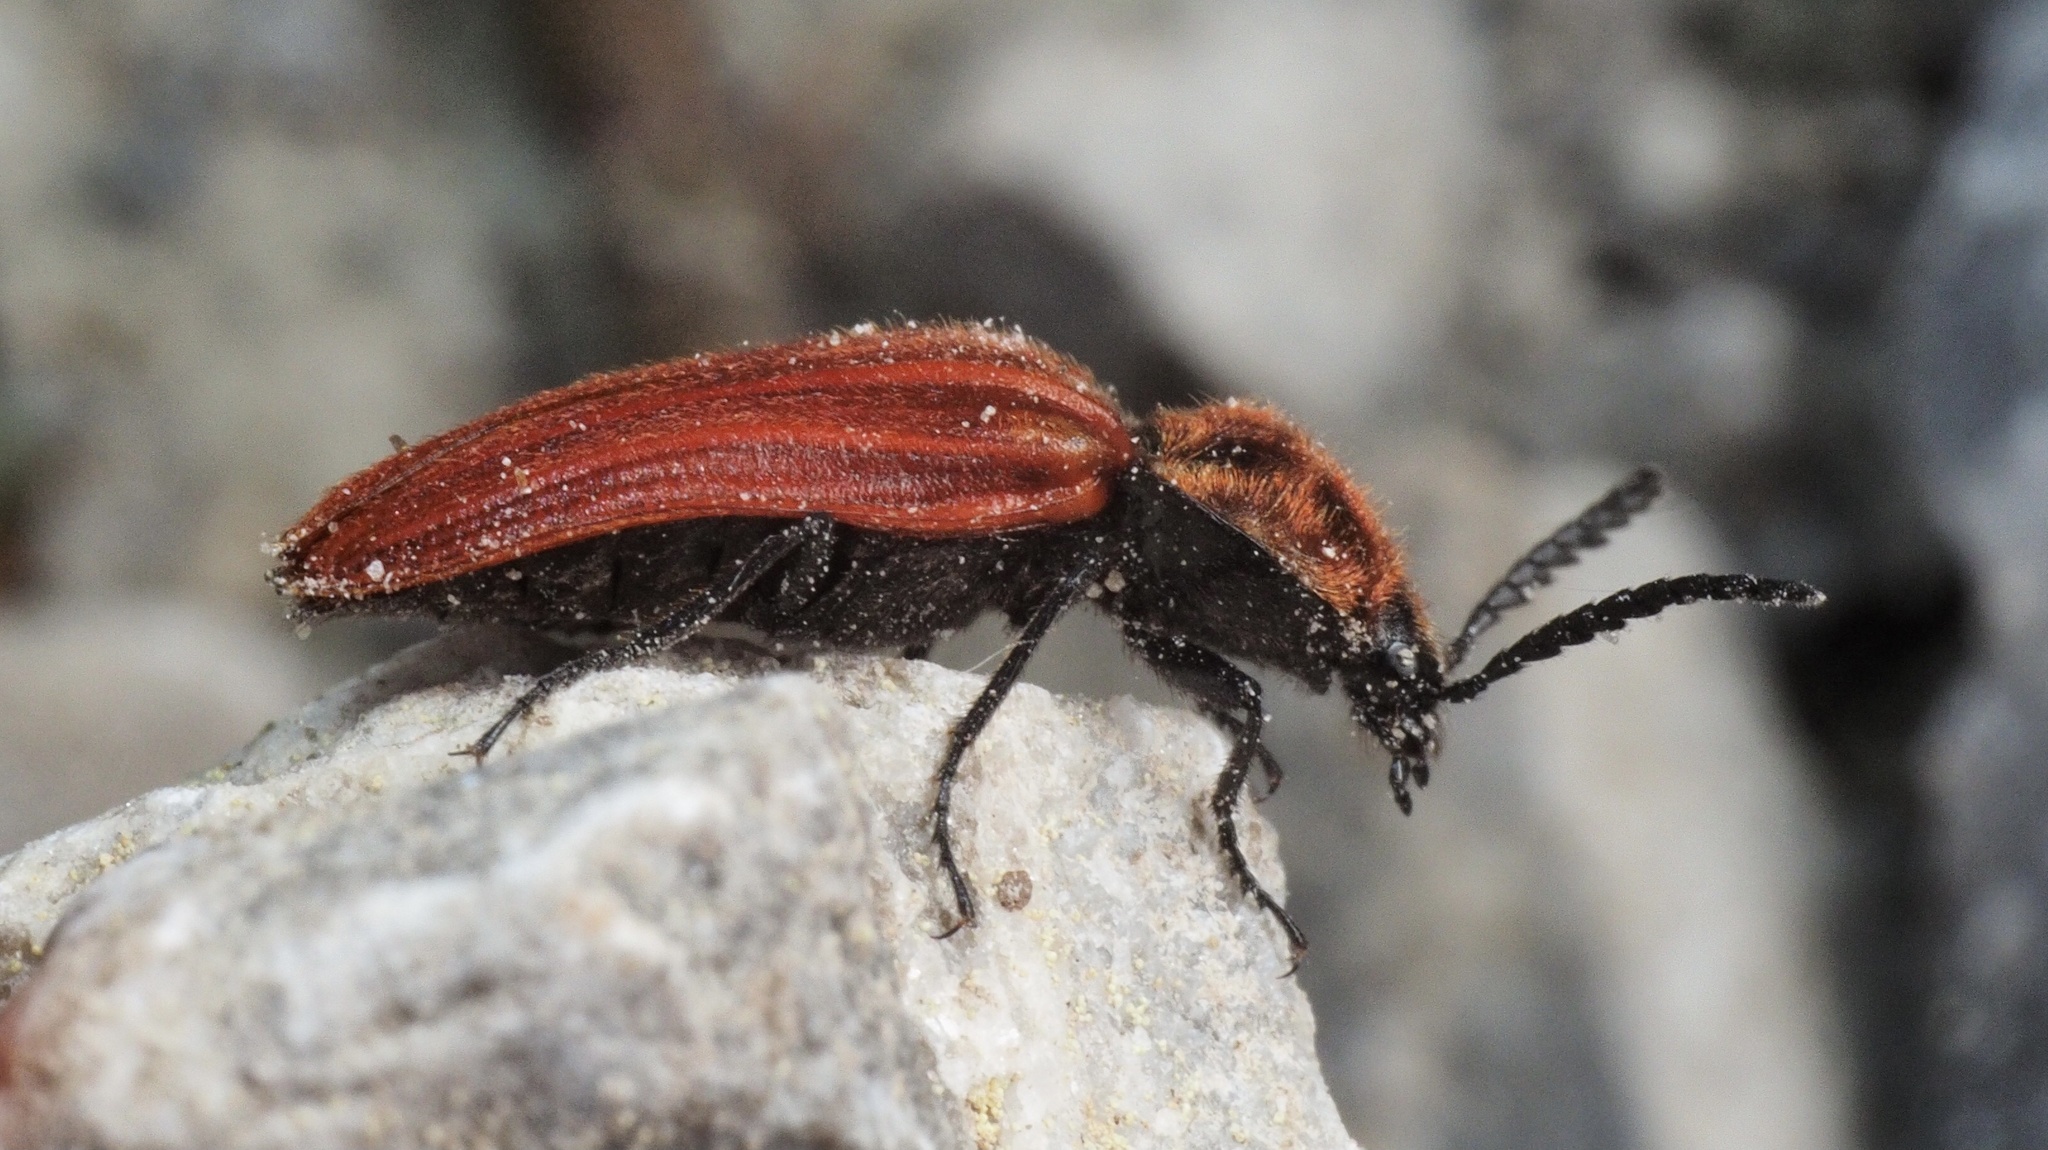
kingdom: Animalia
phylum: Arthropoda
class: Insecta
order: Coleoptera
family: Elateridae
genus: Anostirus
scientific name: Anostirus purpureus
